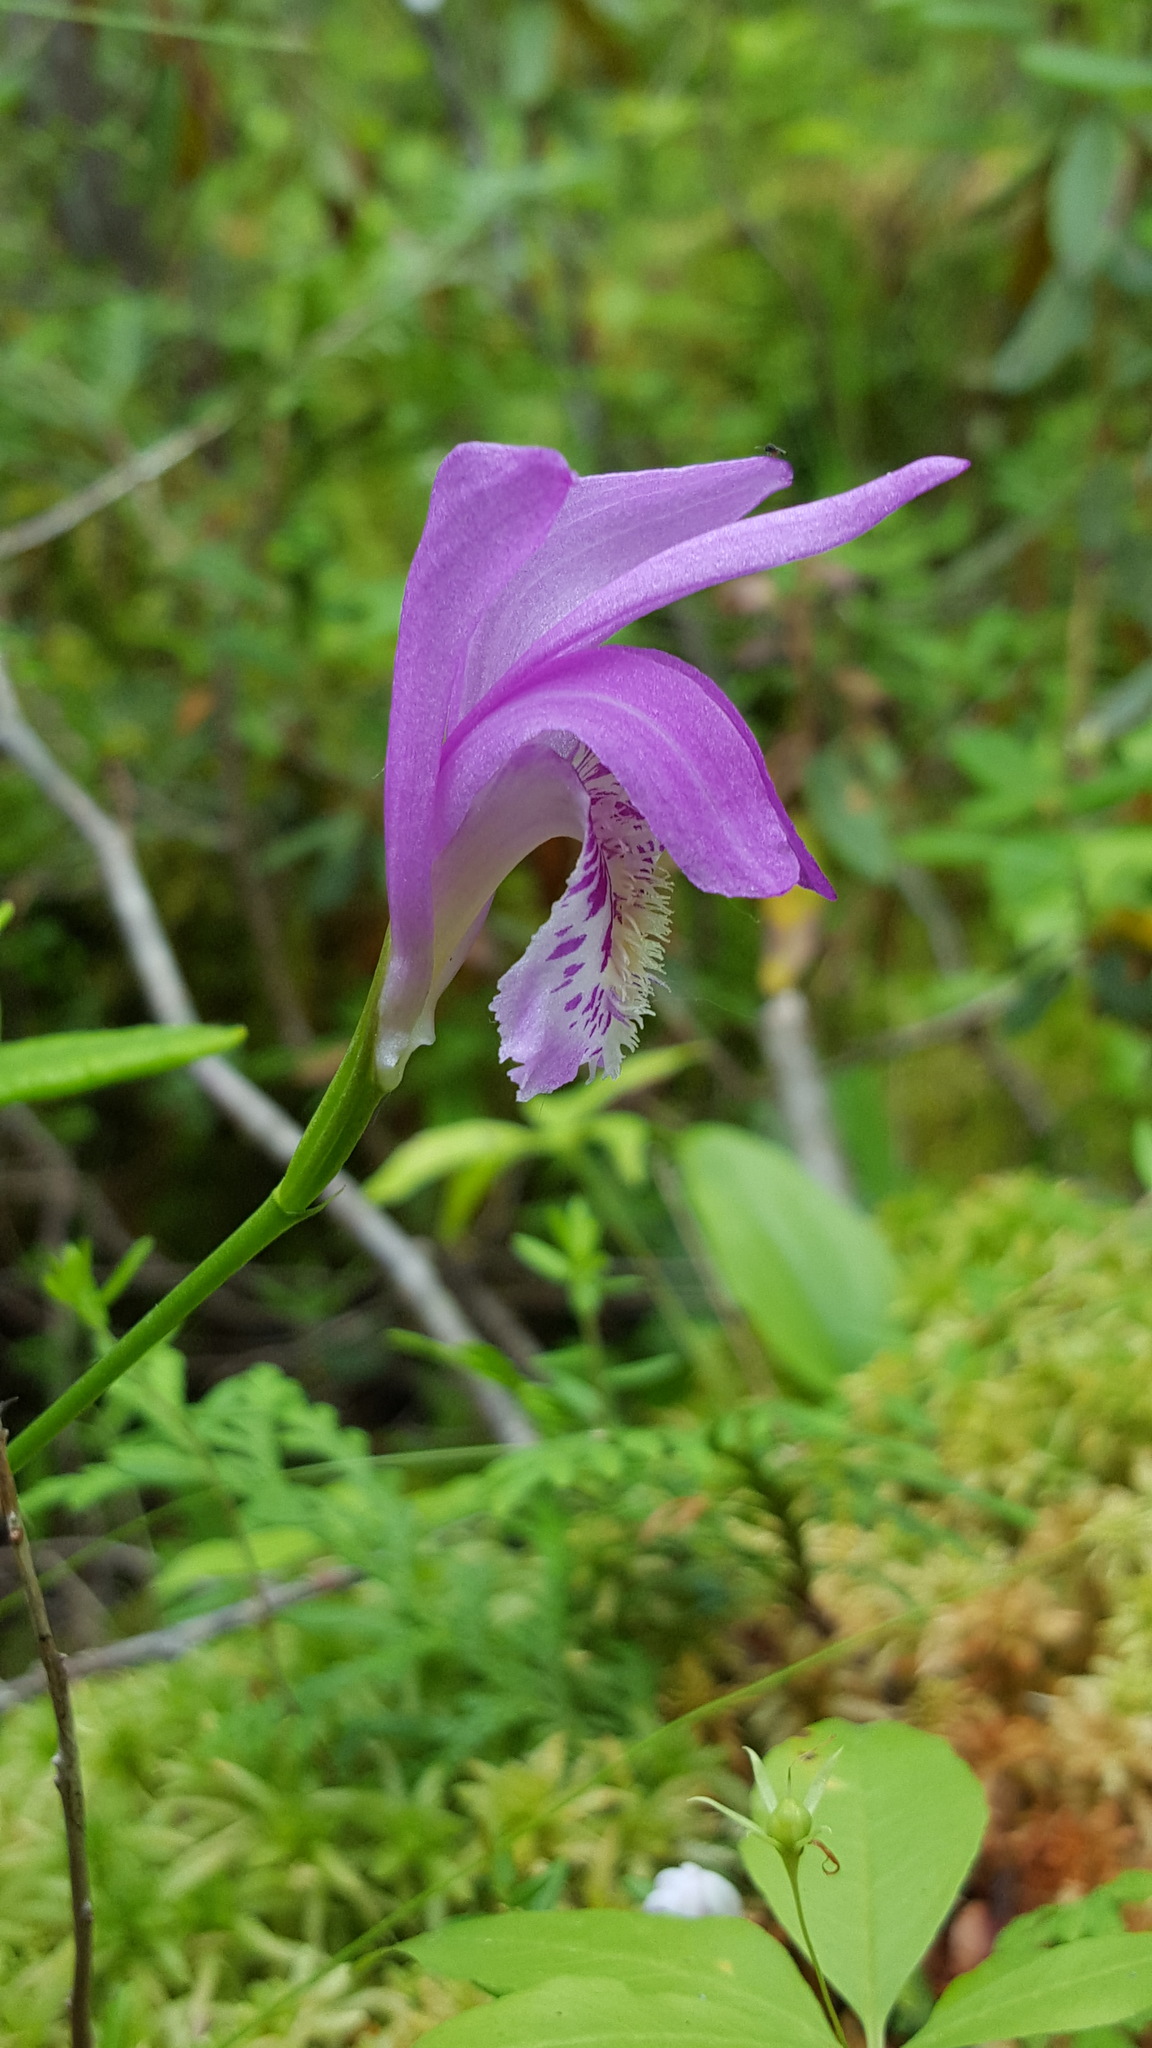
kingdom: Plantae
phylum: Tracheophyta
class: Liliopsida
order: Asparagales
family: Orchidaceae
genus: Arethusa
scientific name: Arethusa bulbosa
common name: Arethusa
